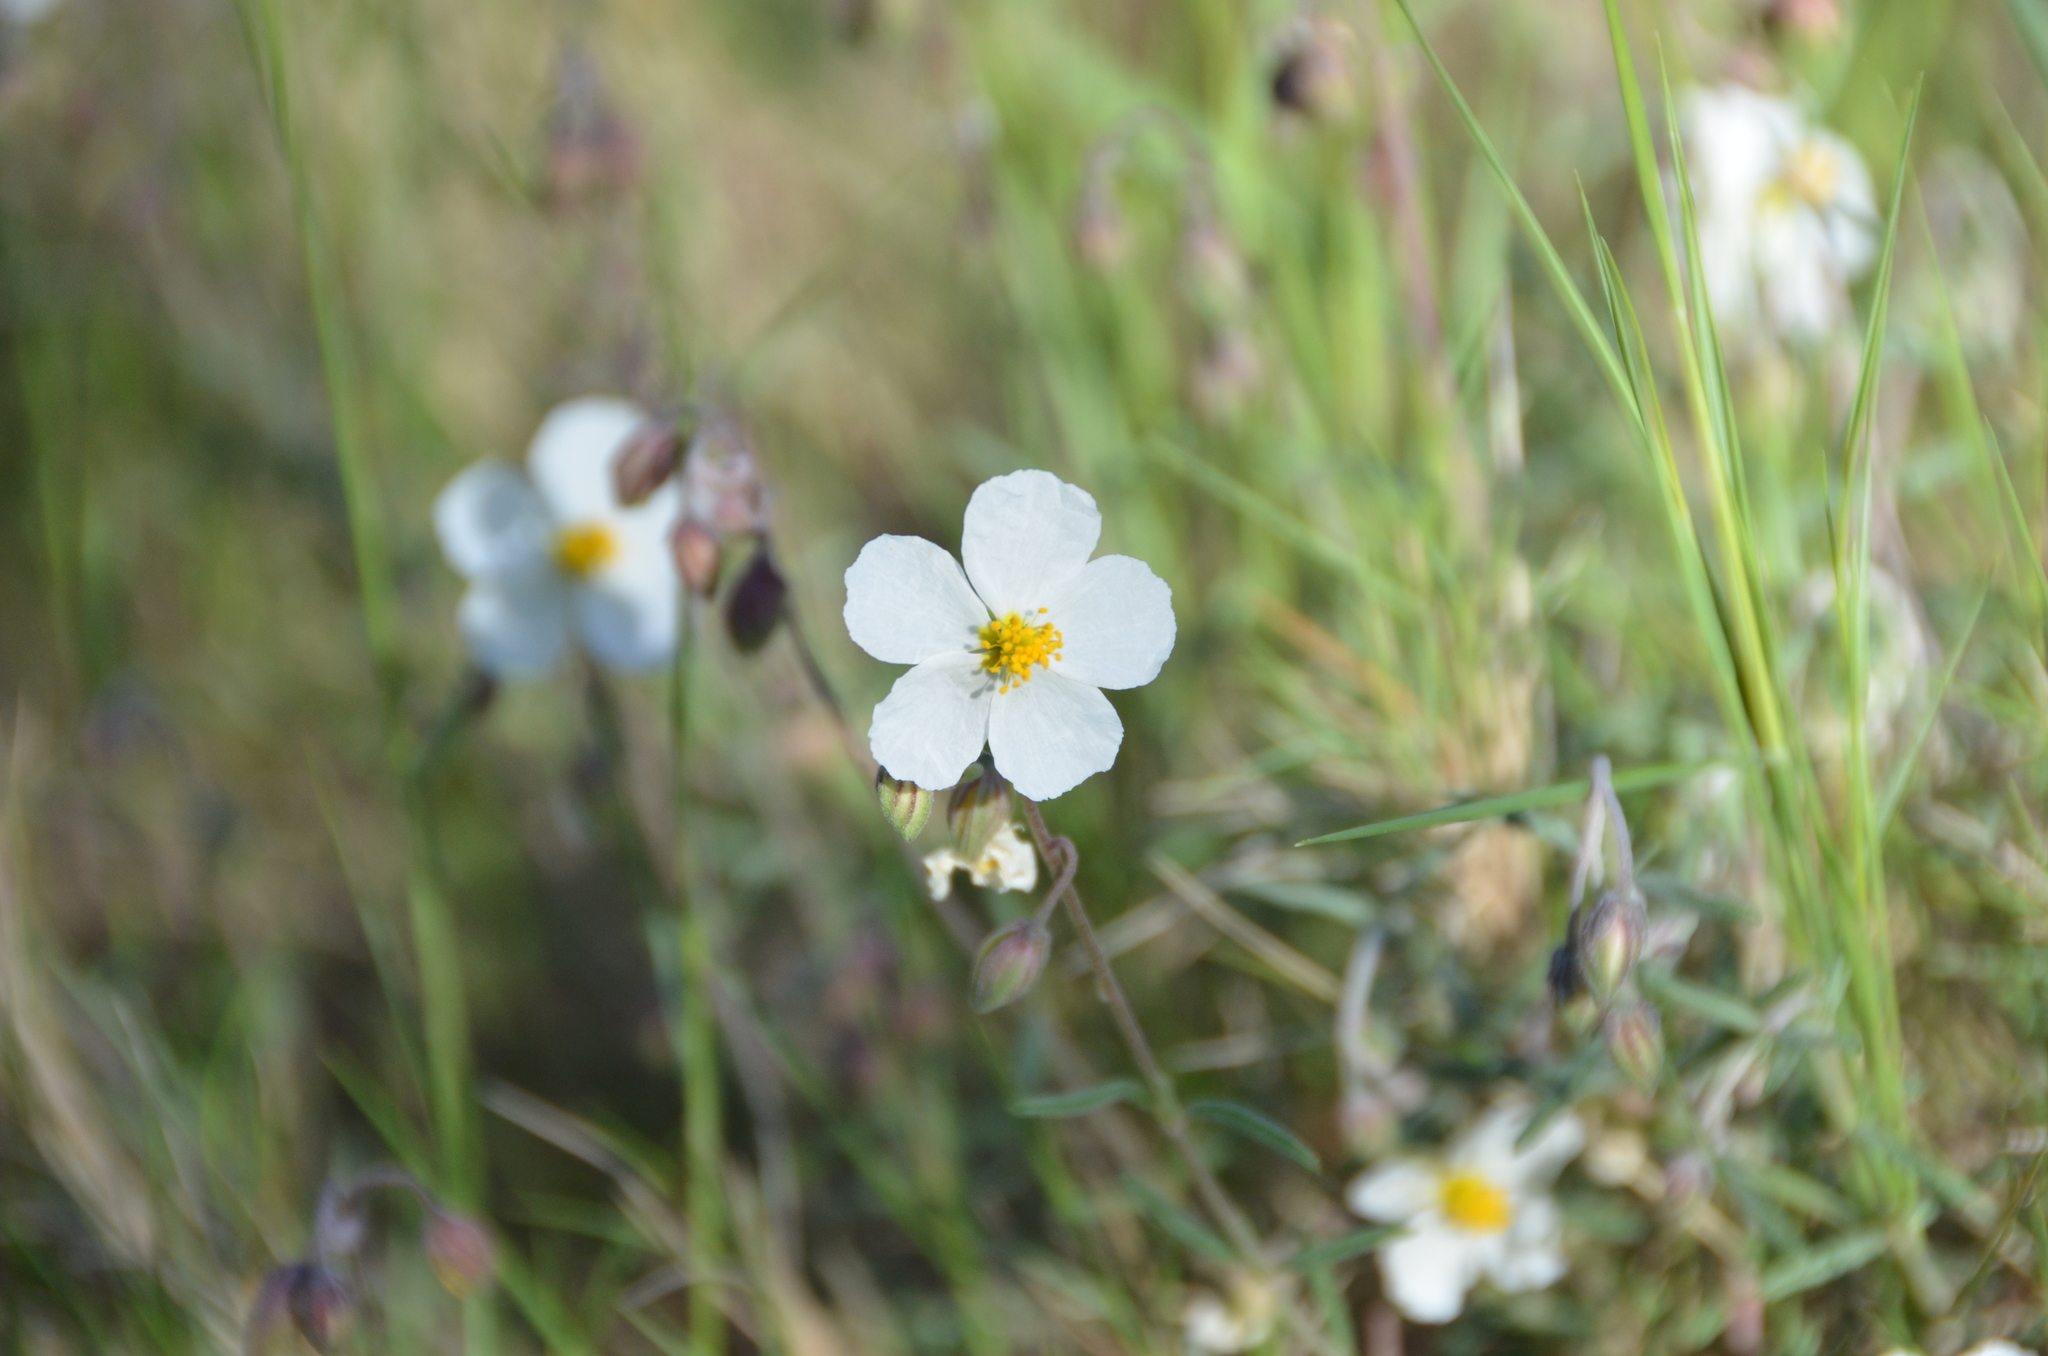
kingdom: Plantae
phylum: Tracheophyta
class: Magnoliopsida
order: Malvales
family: Cistaceae
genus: Helianthemum
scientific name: Helianthemum apenninum
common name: White rock-rose
